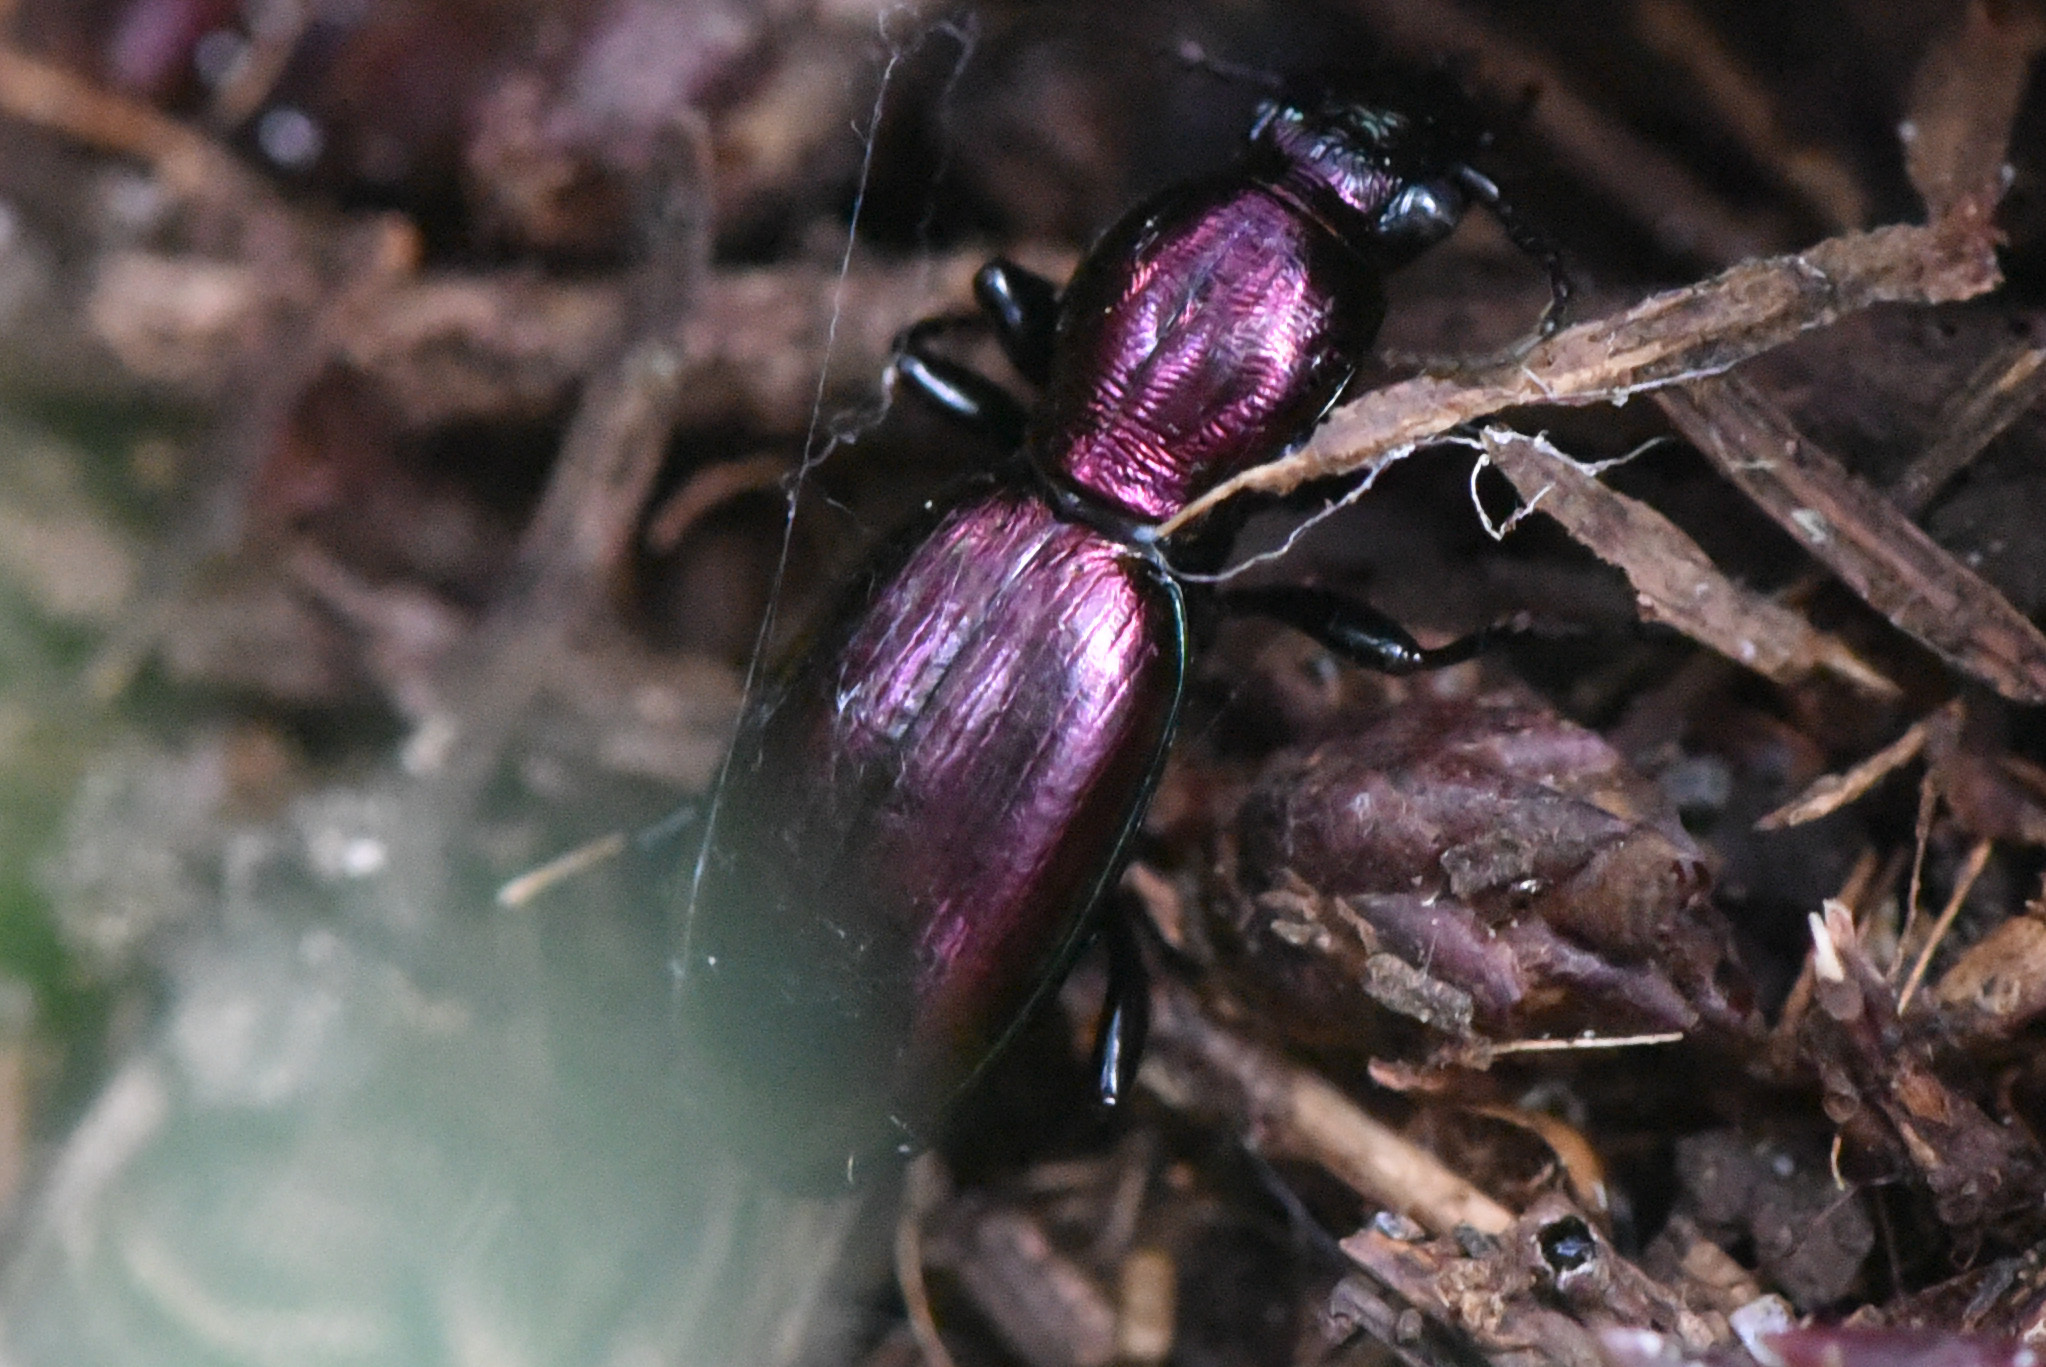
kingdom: Animalia
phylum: Arthropoda
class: Insecta
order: Coleoptera
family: Carabidae
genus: Zacotus
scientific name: Zacotus matthewsii
